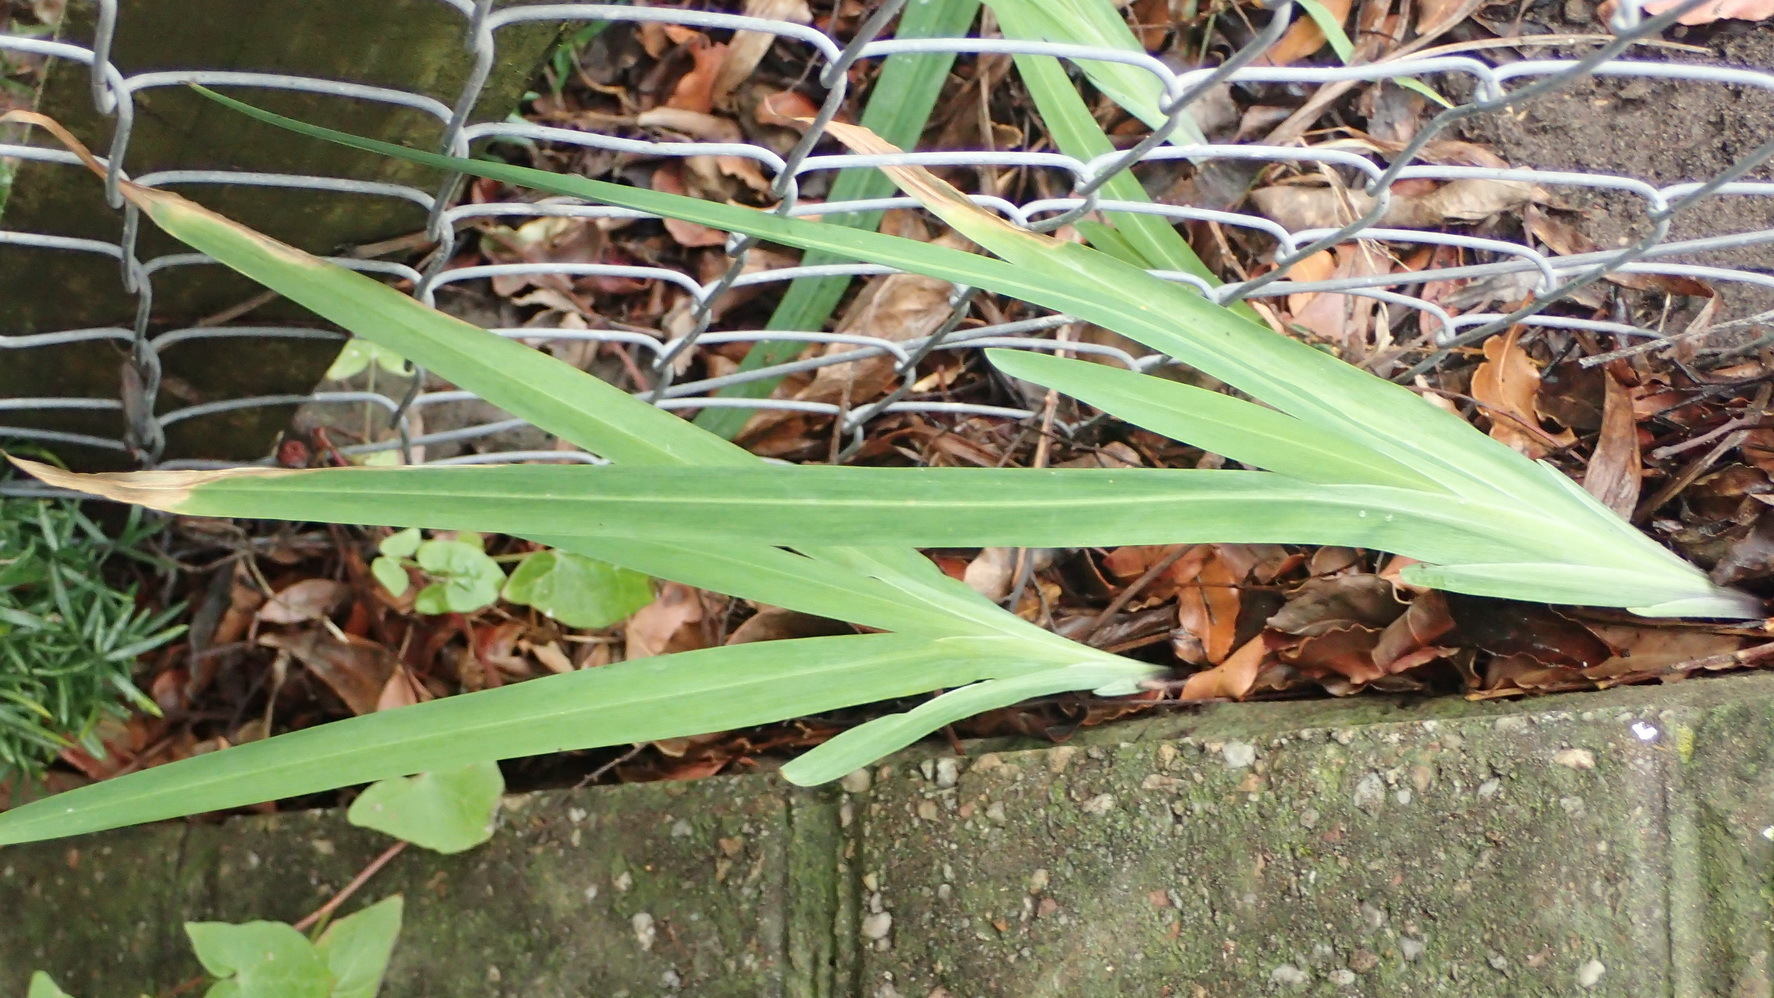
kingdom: Plantae
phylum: Tracheophyta
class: Liliopsida
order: Asparagales
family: Iridaceae
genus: Chasmanthe
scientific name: Chasmanthe aethiopica
